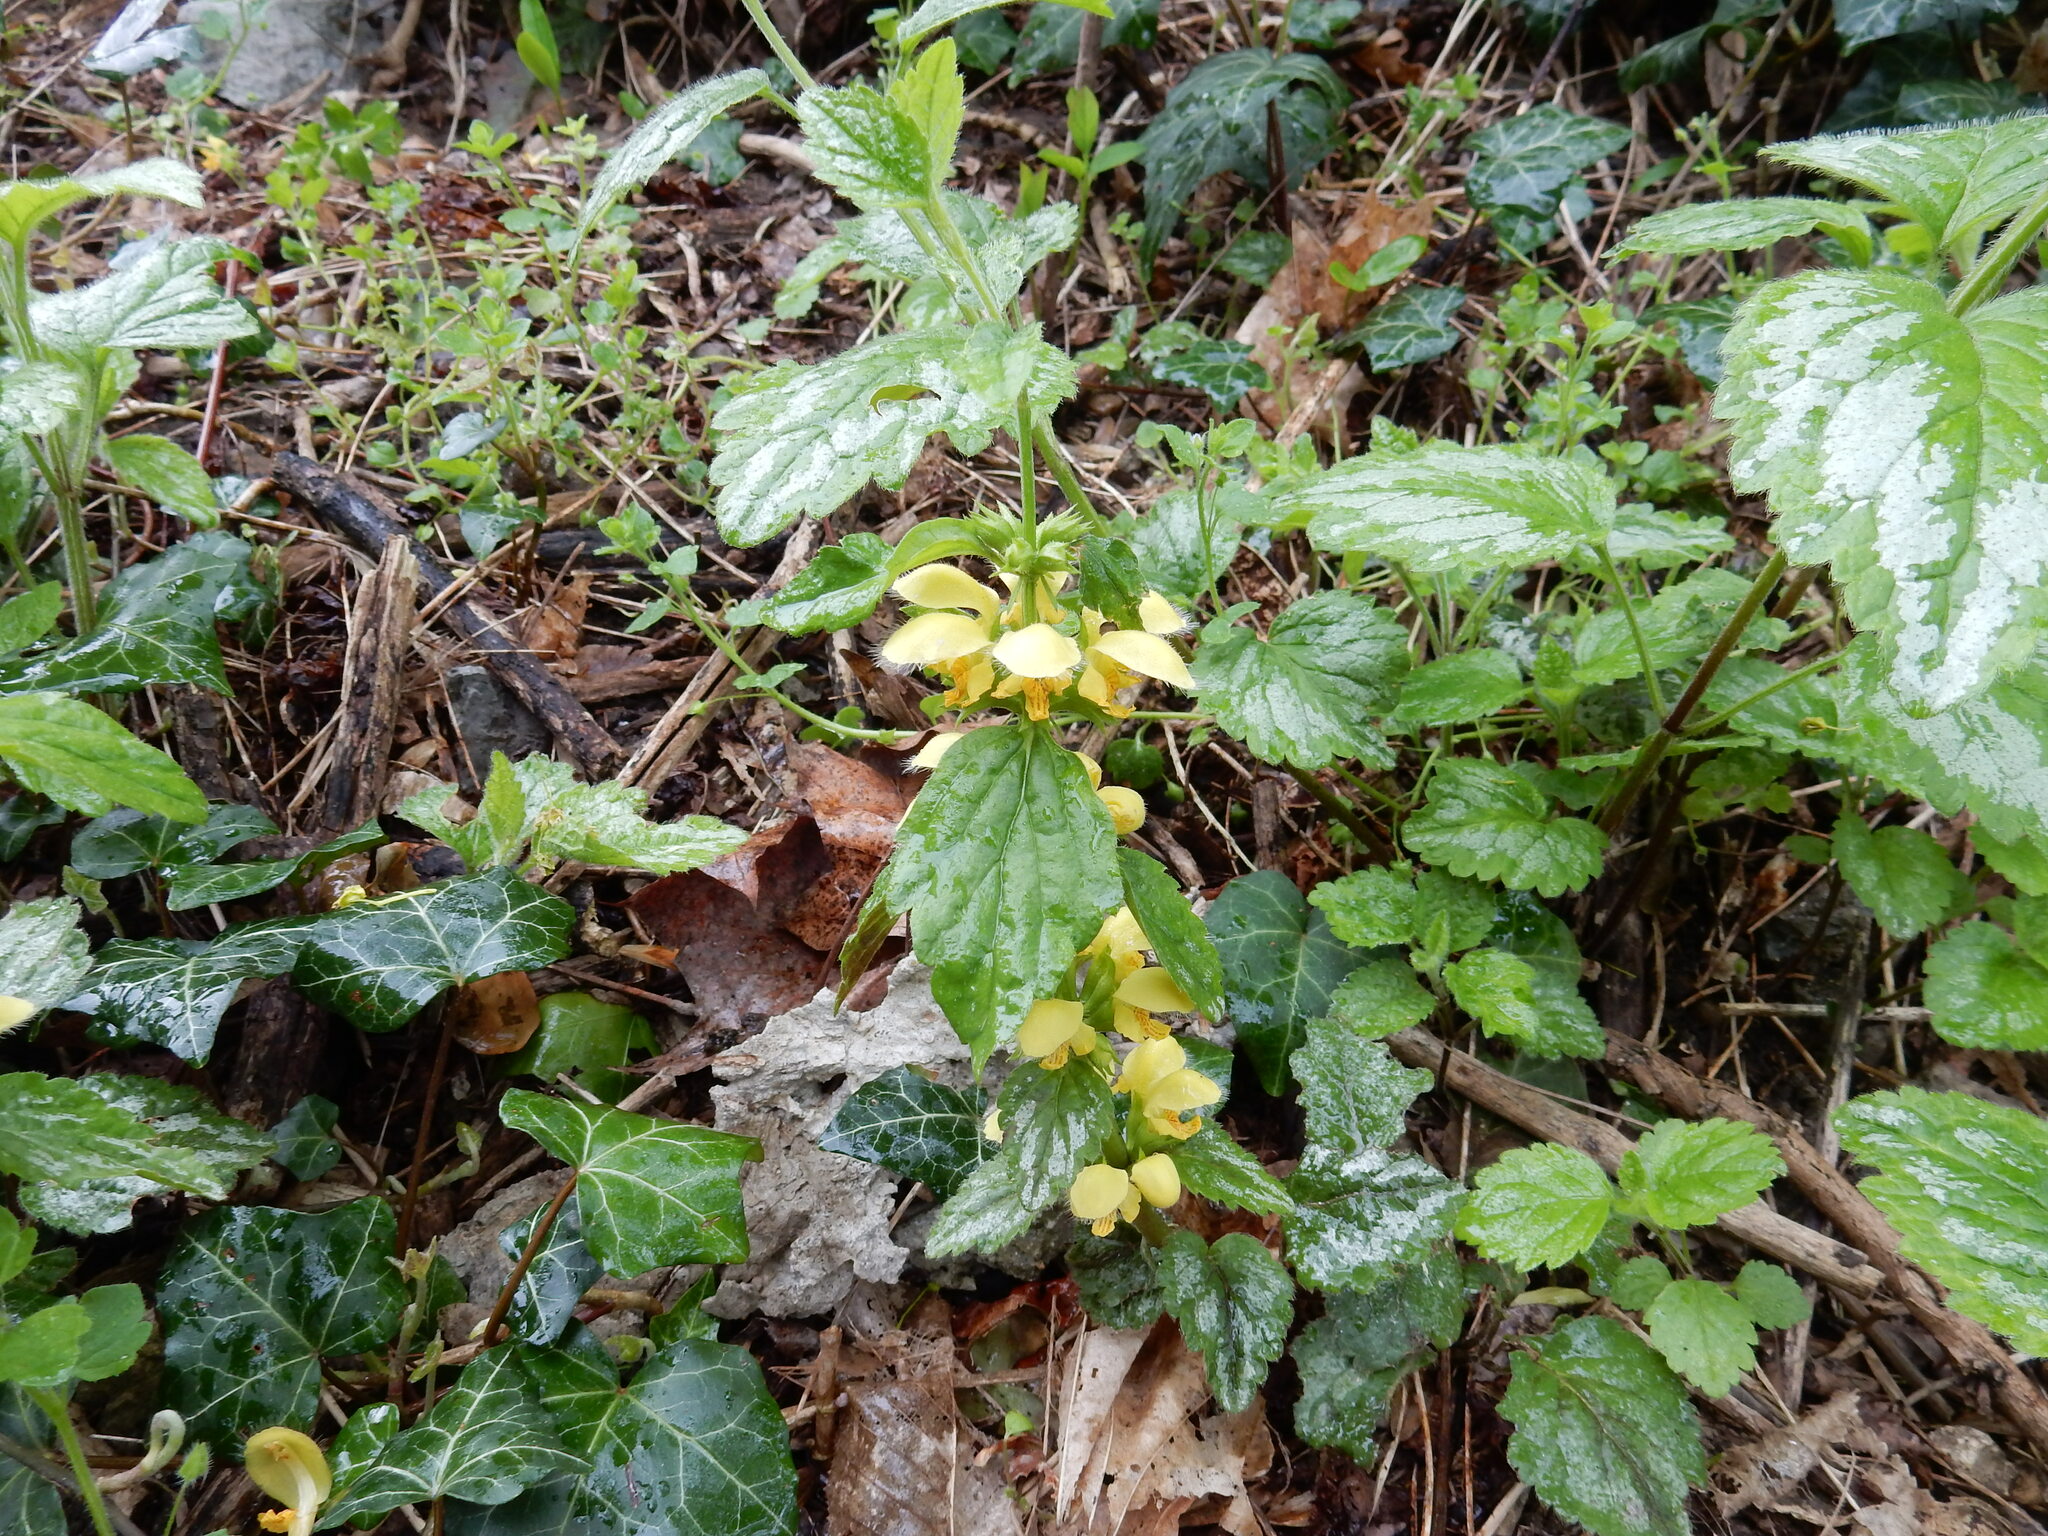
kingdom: Plantae
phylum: Tracheophyta
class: Magnoliopsida
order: Lamiales
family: Lamiaceae
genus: Lamium
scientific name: Lamium galeobdolon
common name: Yellow archangel
